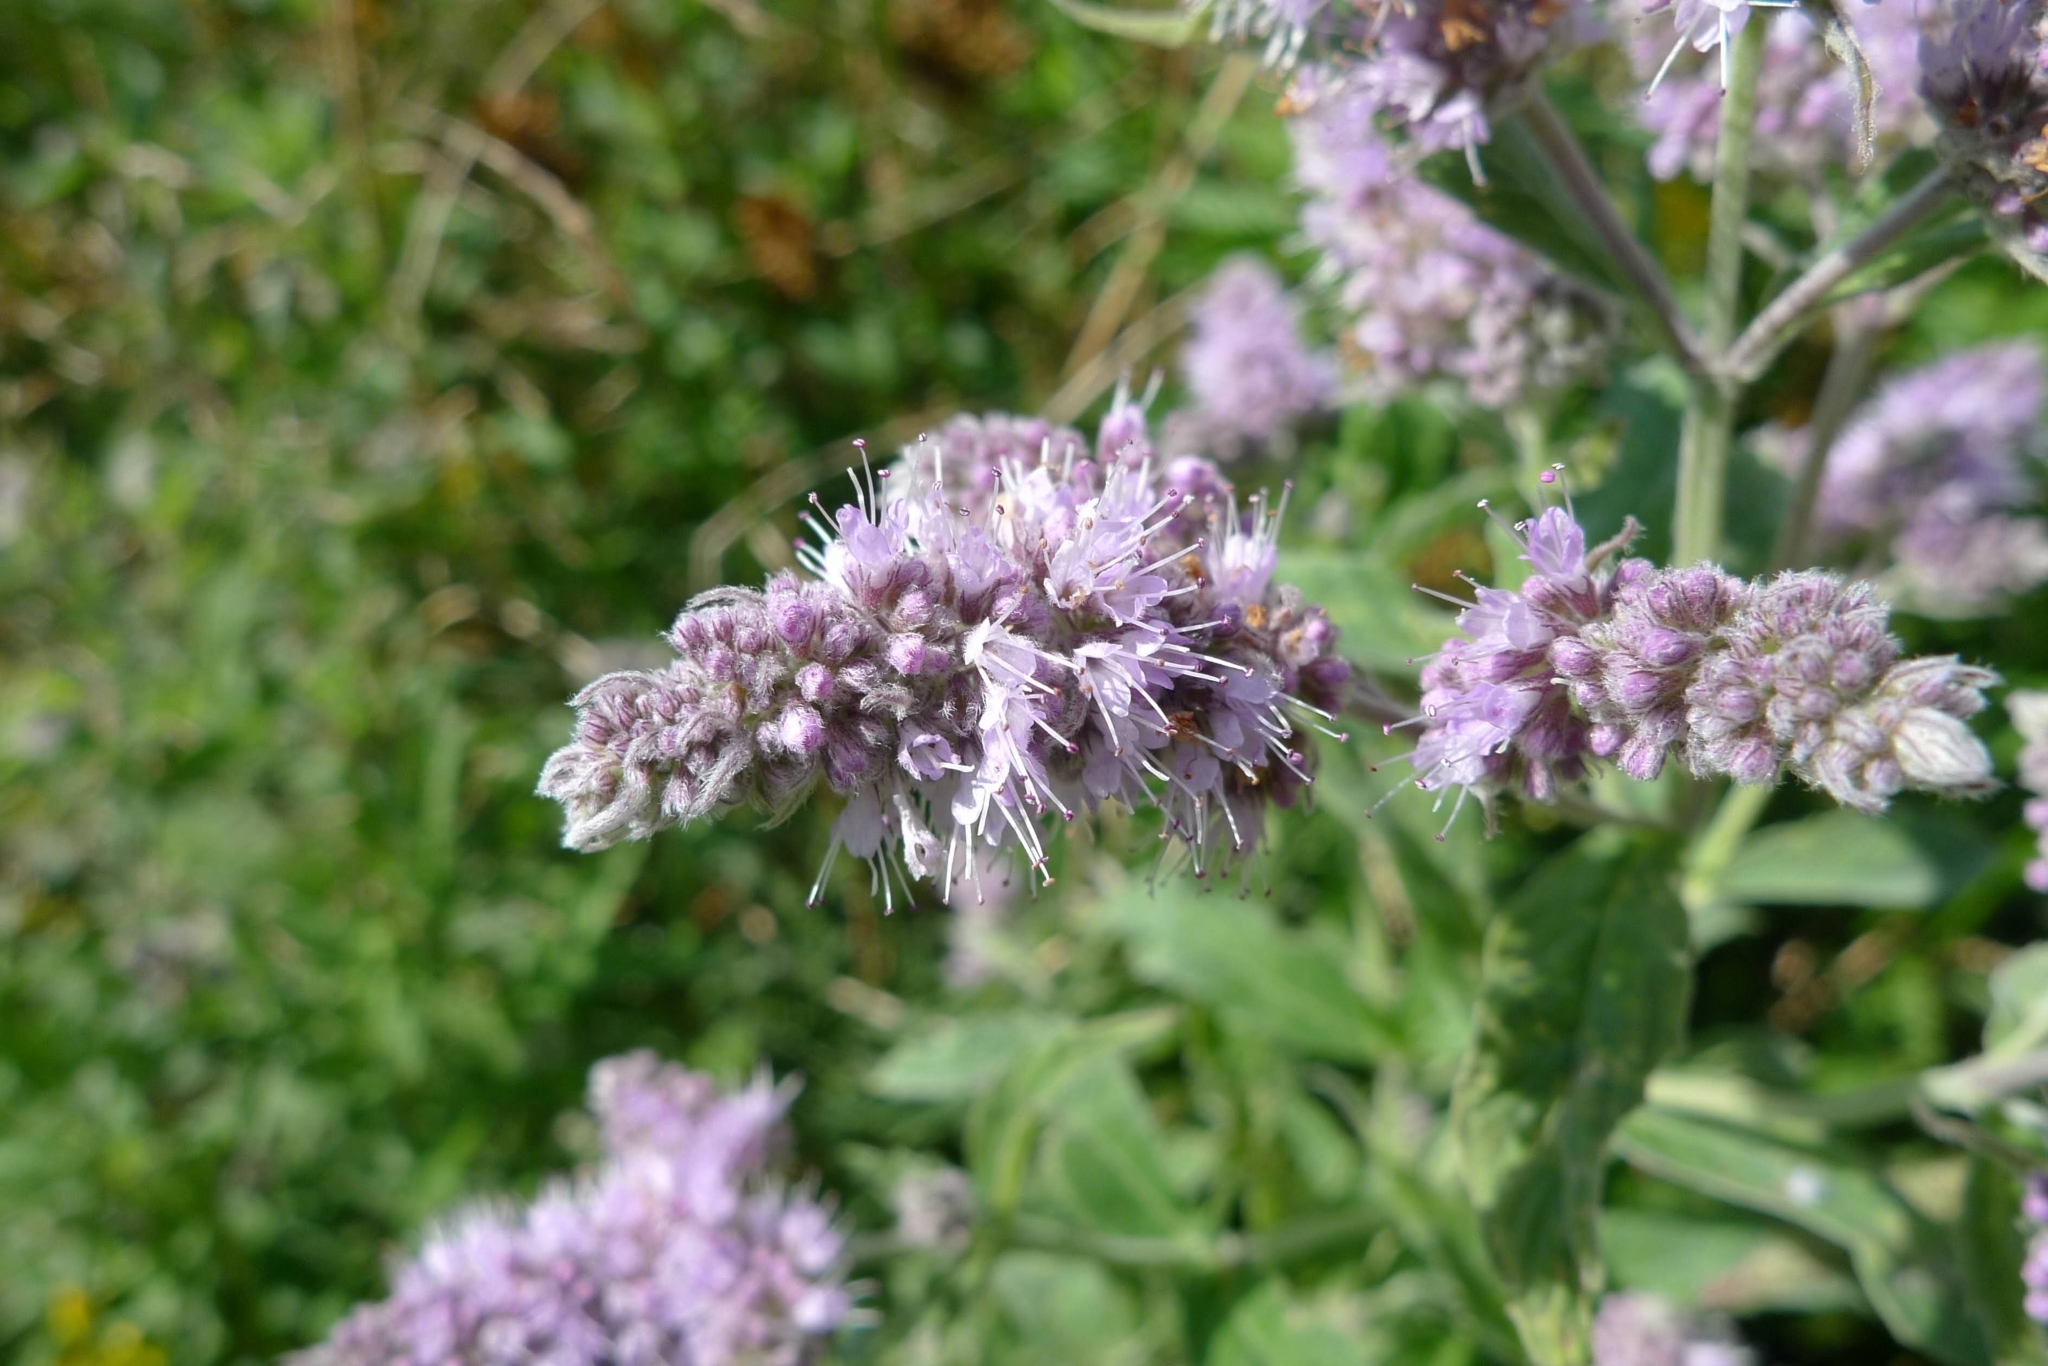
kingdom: Plantae
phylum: Tracheophyta
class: Magnoliopsida
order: Lamiales
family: Lamiaceae
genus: Mentha
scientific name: Mentha longifolia
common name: Horse mint
